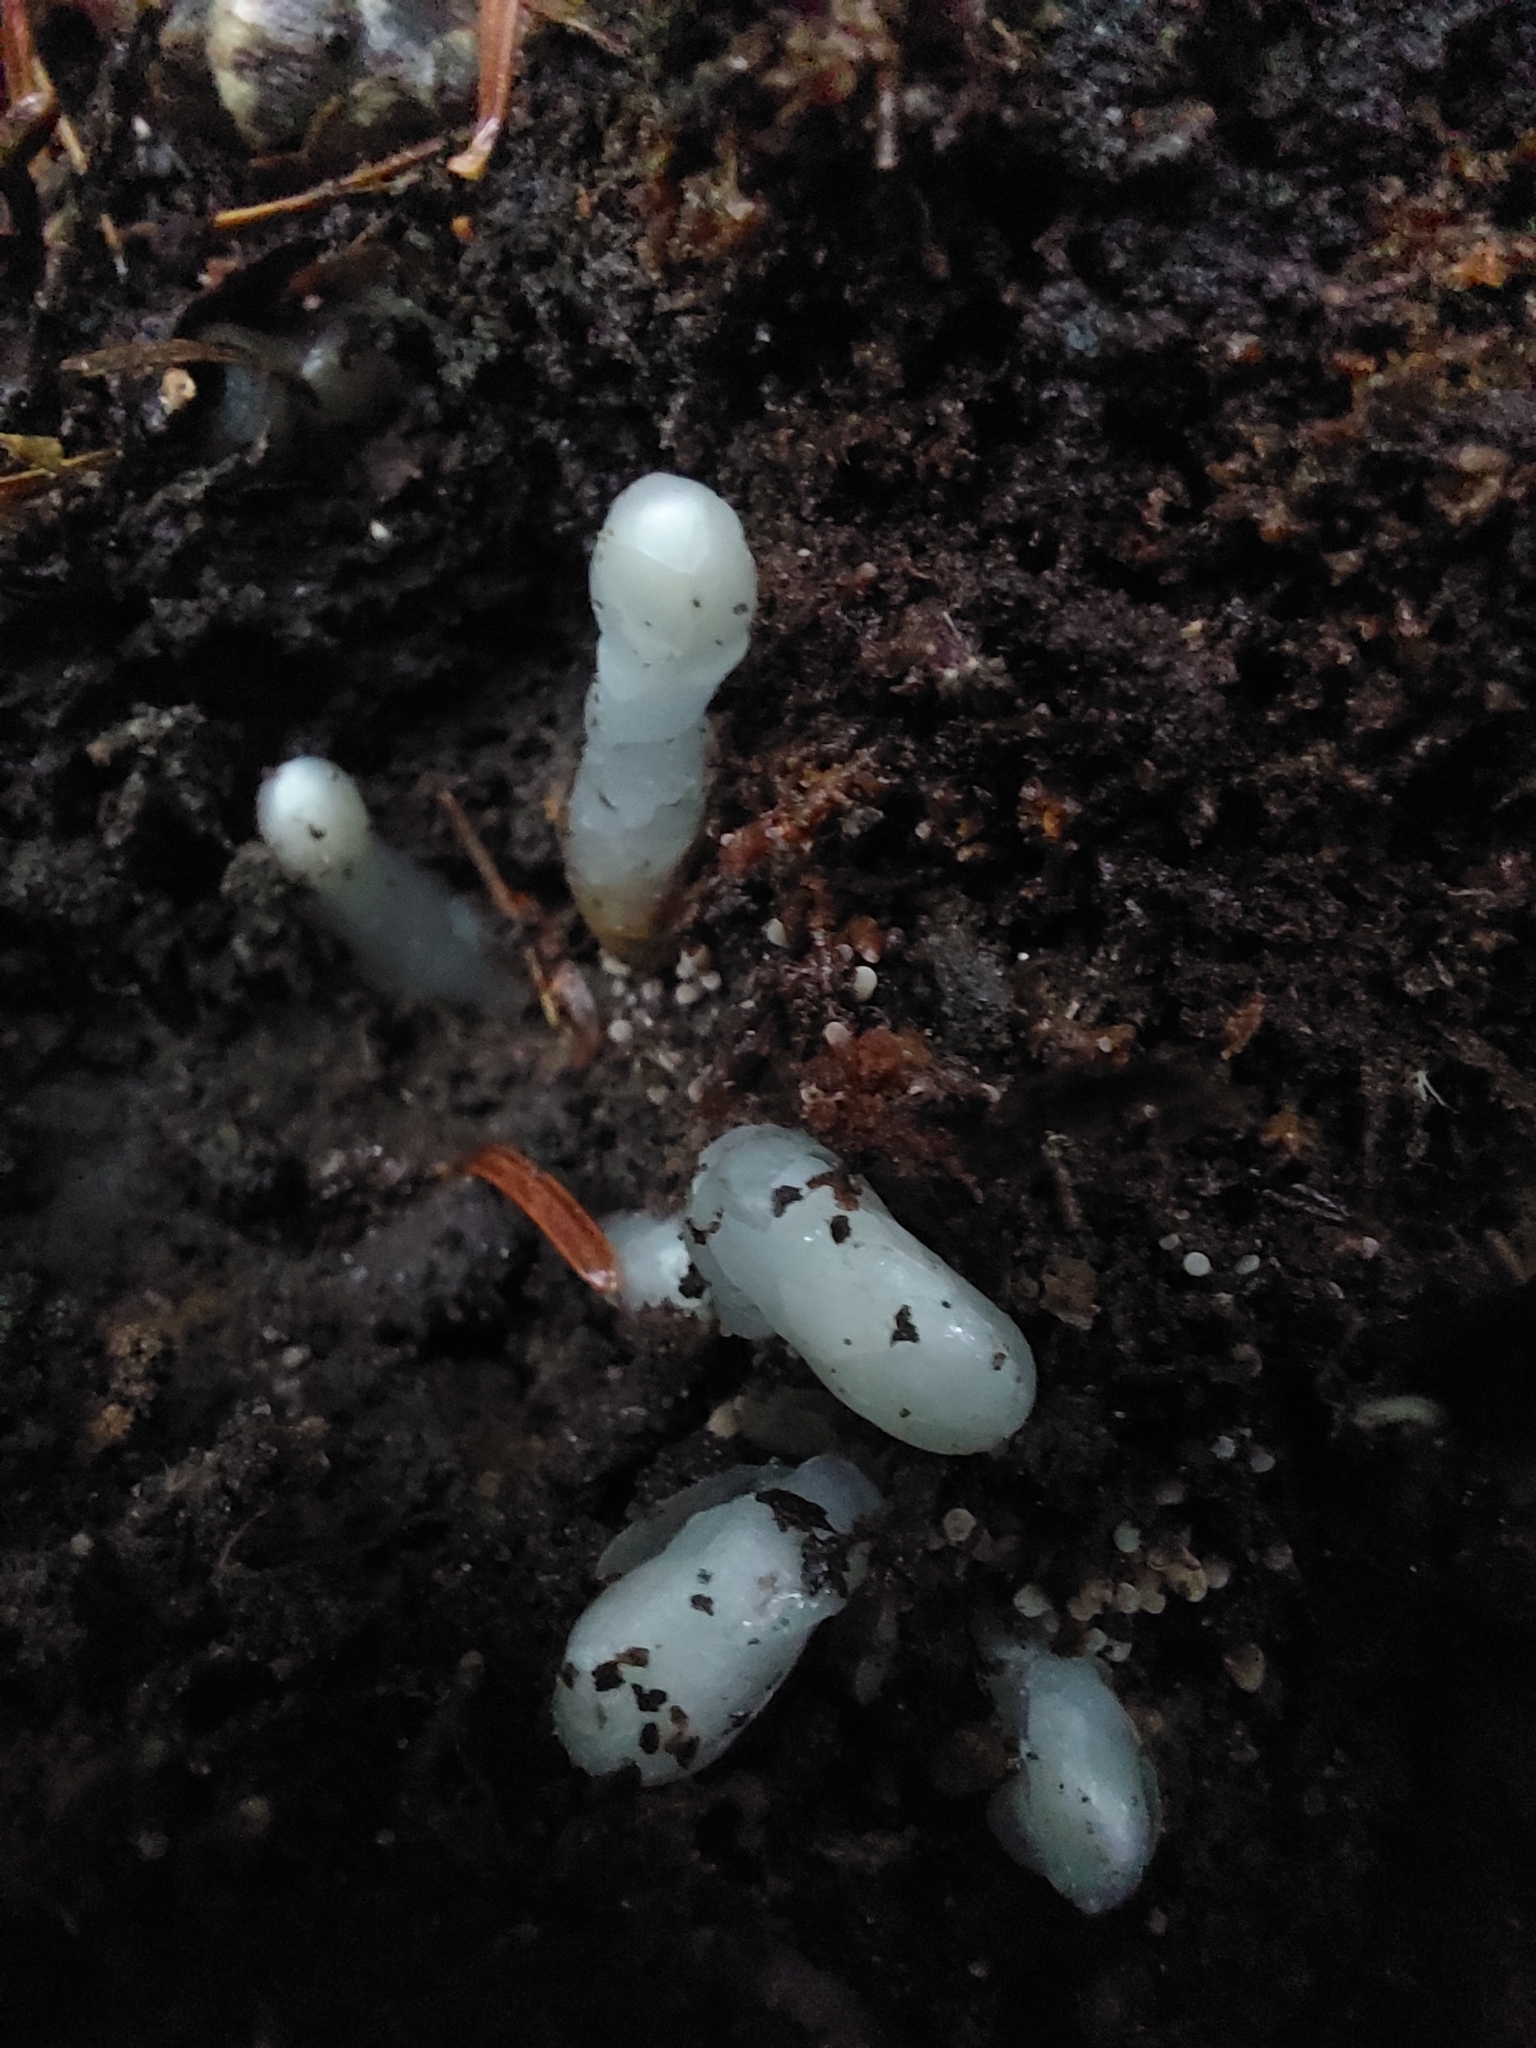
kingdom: Plantae
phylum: Tracheophyta
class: Magnoliopsida
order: Ericales
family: Ericaceae
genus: Monotropa
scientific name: Monotropa uniflora
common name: Convulsion root
